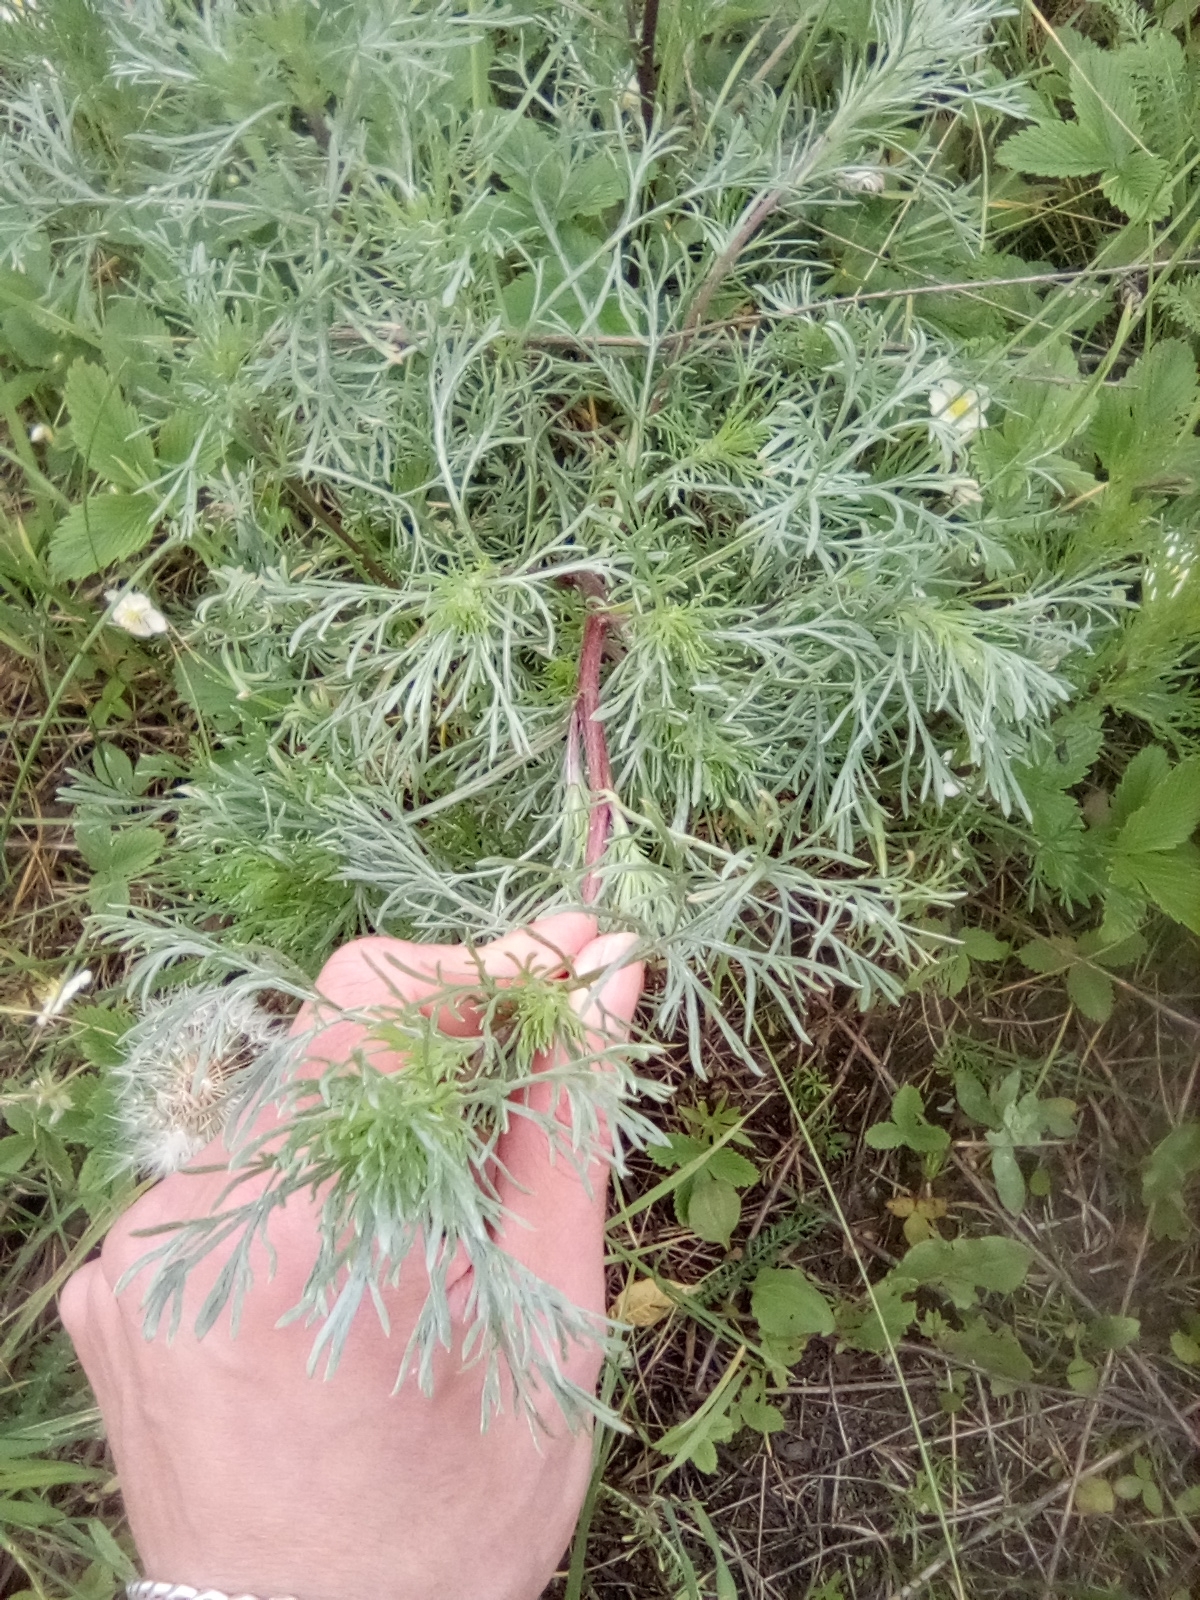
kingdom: Plantae
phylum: Tracheophyta
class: Magnoliopsida
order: Asterales
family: Asteraceae
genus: Artemisia
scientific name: Artemisia campestris
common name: Field wormwood
